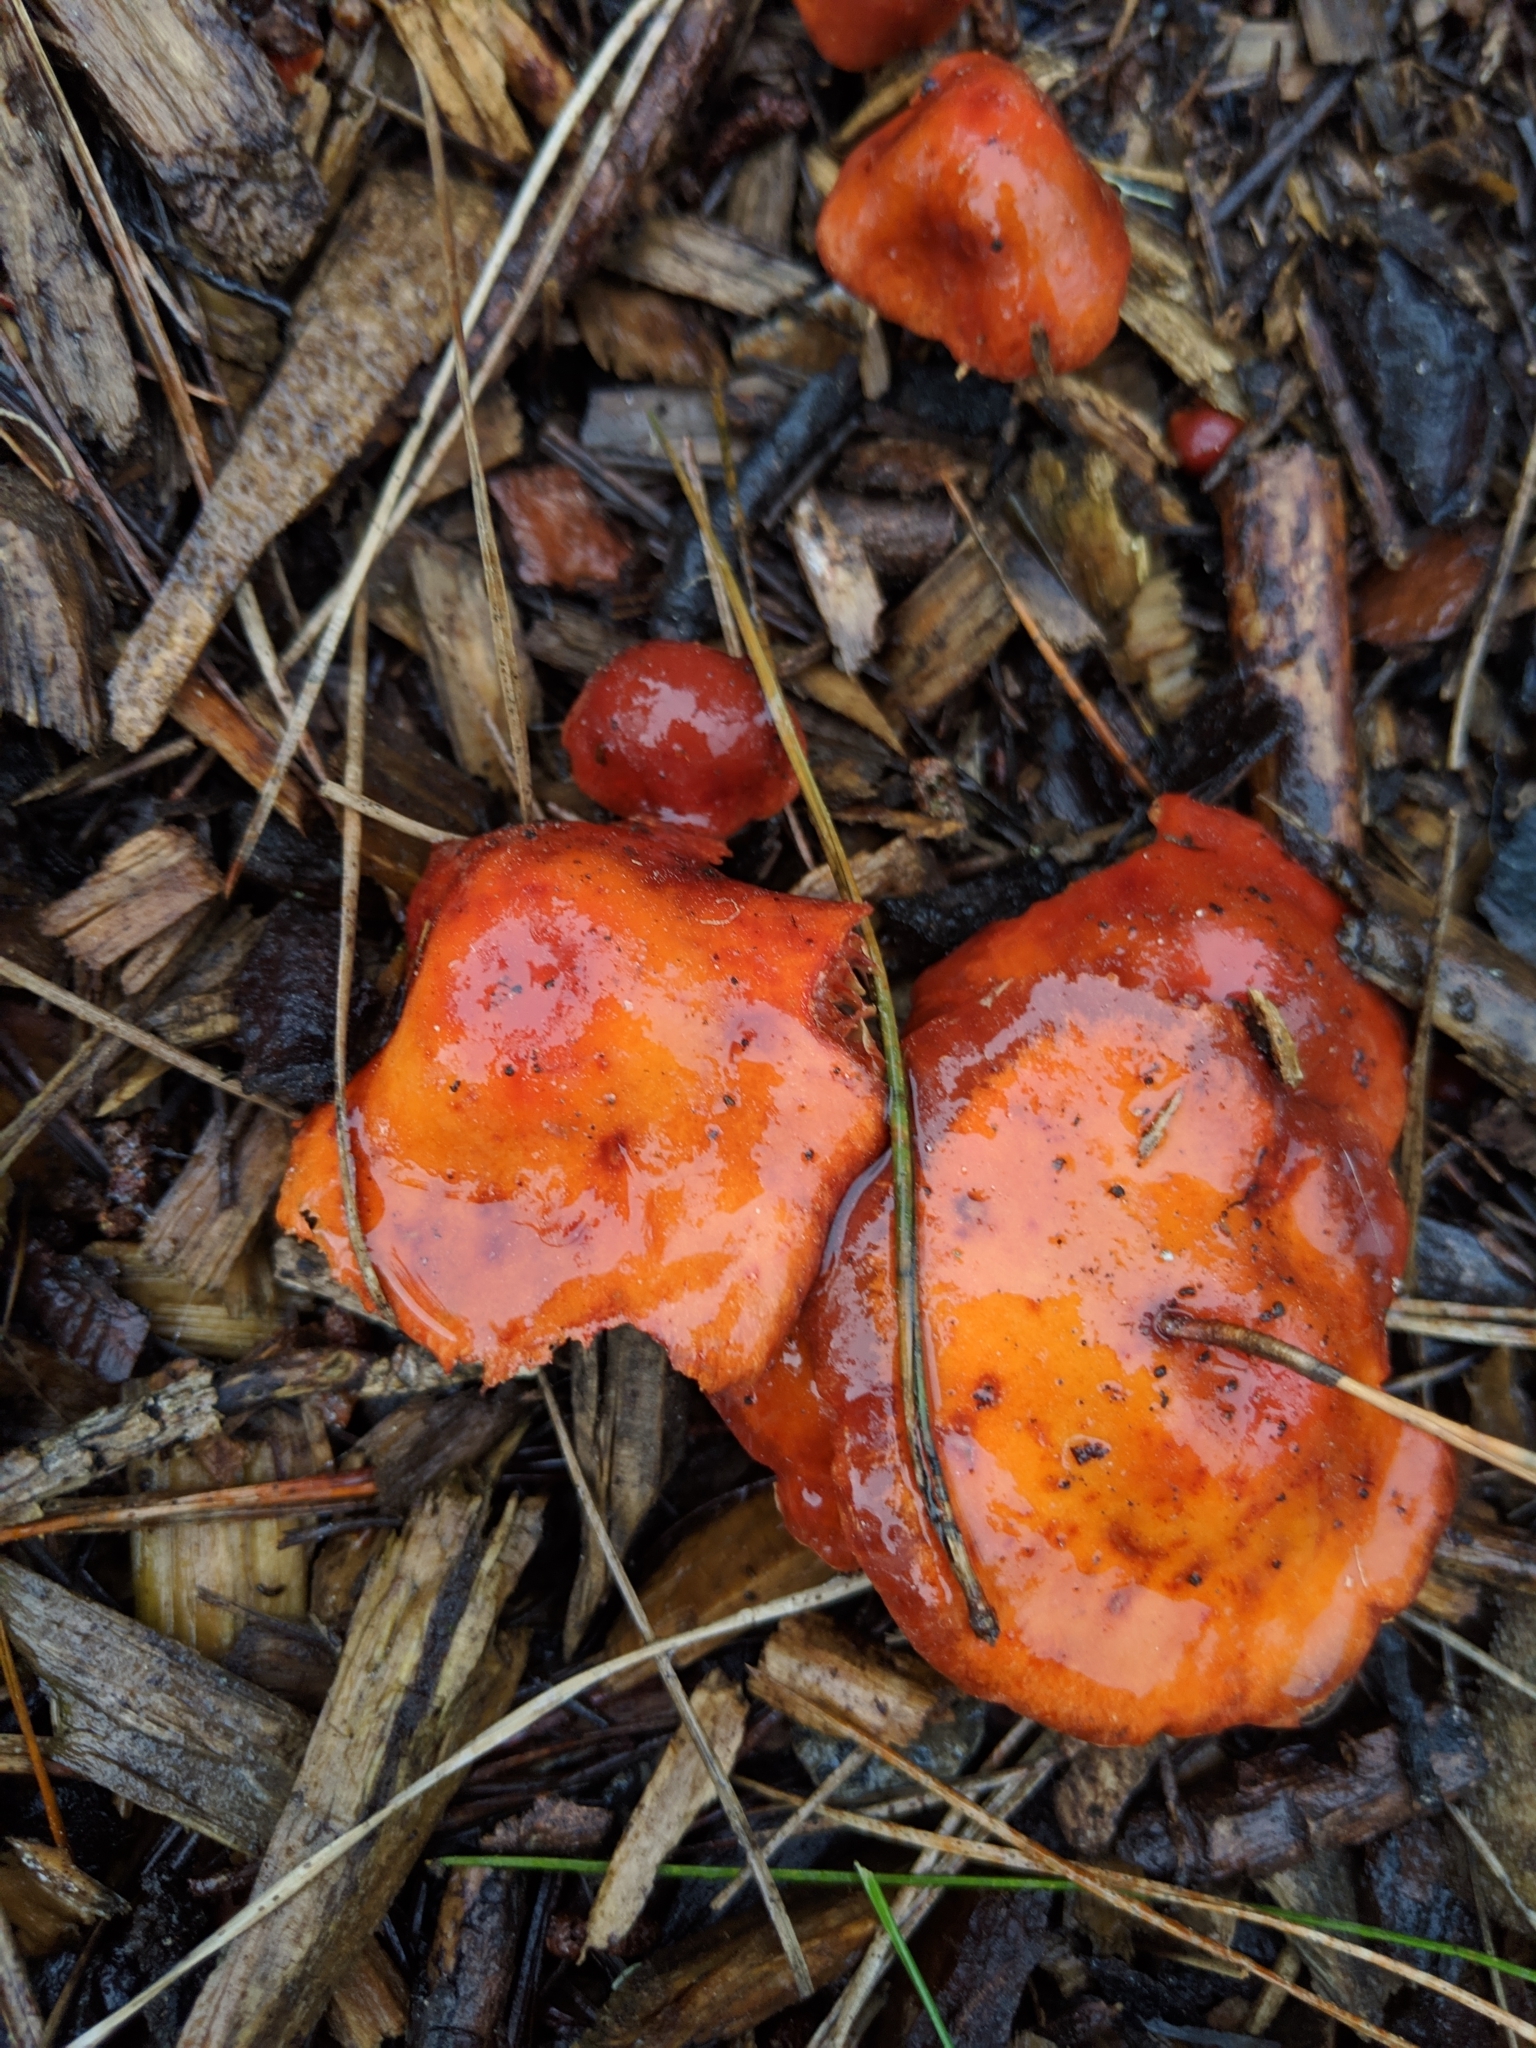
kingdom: Fungi
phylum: Basidiomycota
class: Agaricomycetes
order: Agaricales
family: Strophariaceae
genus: Leratiomyces
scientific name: Leratiomyces ceres
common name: Redlead roundhead
